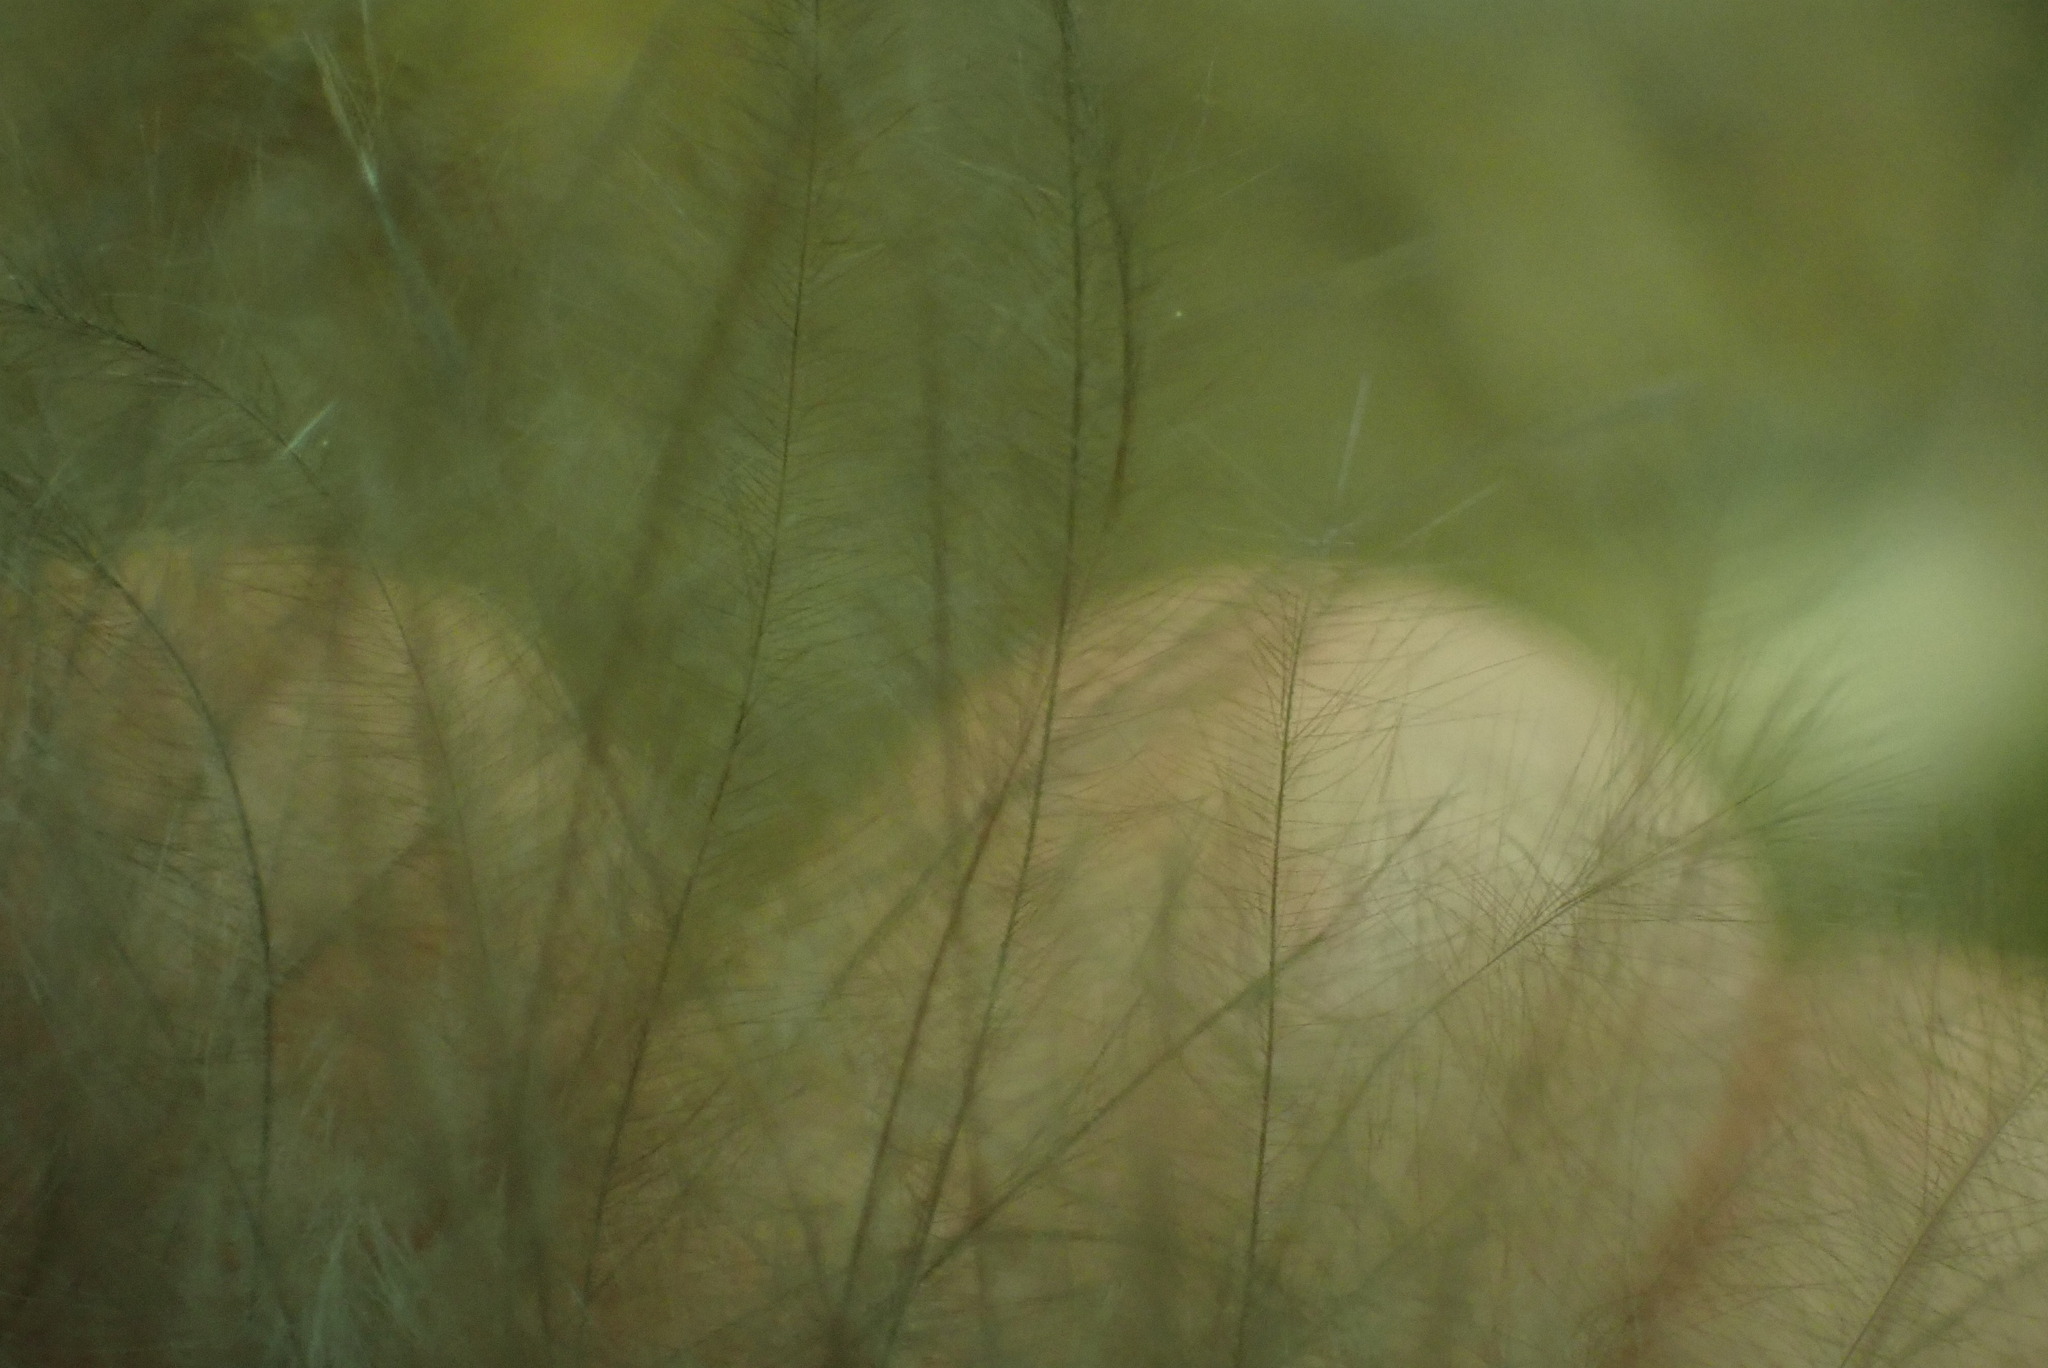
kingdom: Animalia
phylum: Chordata
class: Aves
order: Galliformes
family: Phasianidae
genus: Meleagris
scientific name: Meleagris gallopavo
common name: Wild turkey
